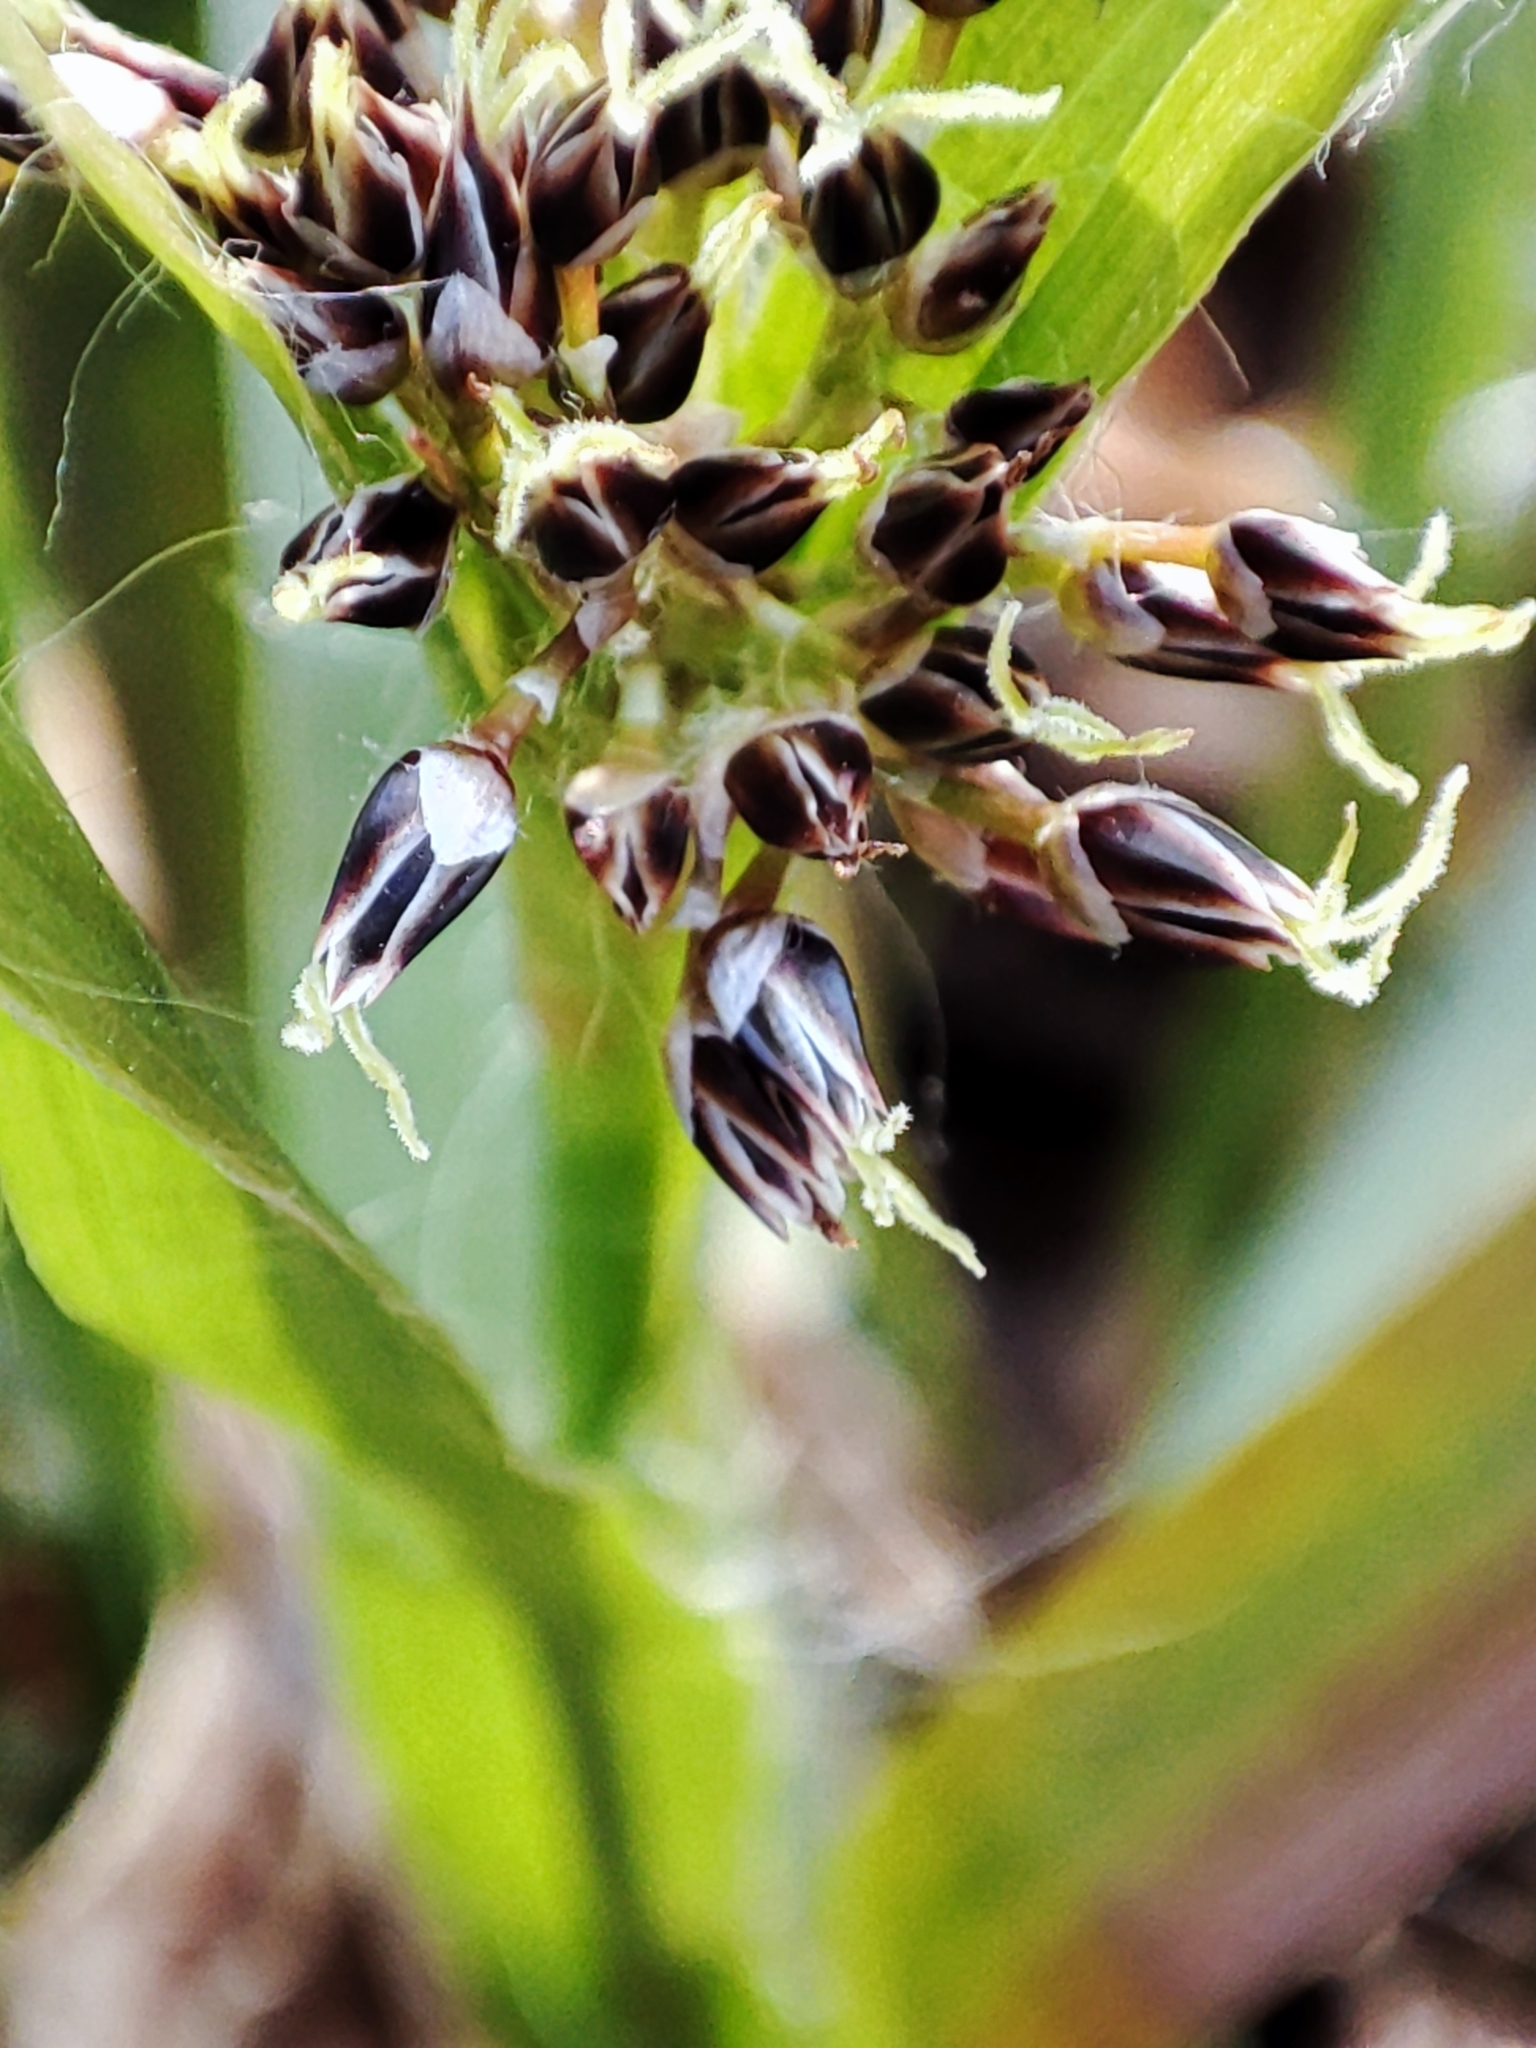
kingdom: Plantae
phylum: Tracheophyta
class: Liliopsida
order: Poales
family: Juncaceae
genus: Luzula
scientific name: Luzula pilosa
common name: Hairy wood-rush
